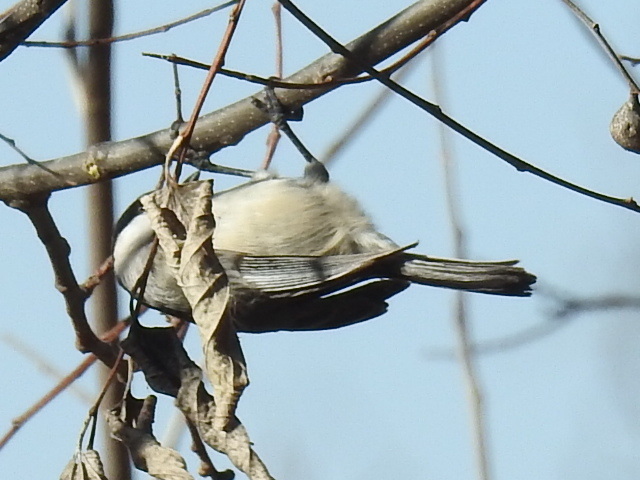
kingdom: Animalia
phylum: Chordata
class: Aves
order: Passeriformes
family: Paridae
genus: Poecile
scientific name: Poecile carolinensis
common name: Carolina chickadee
